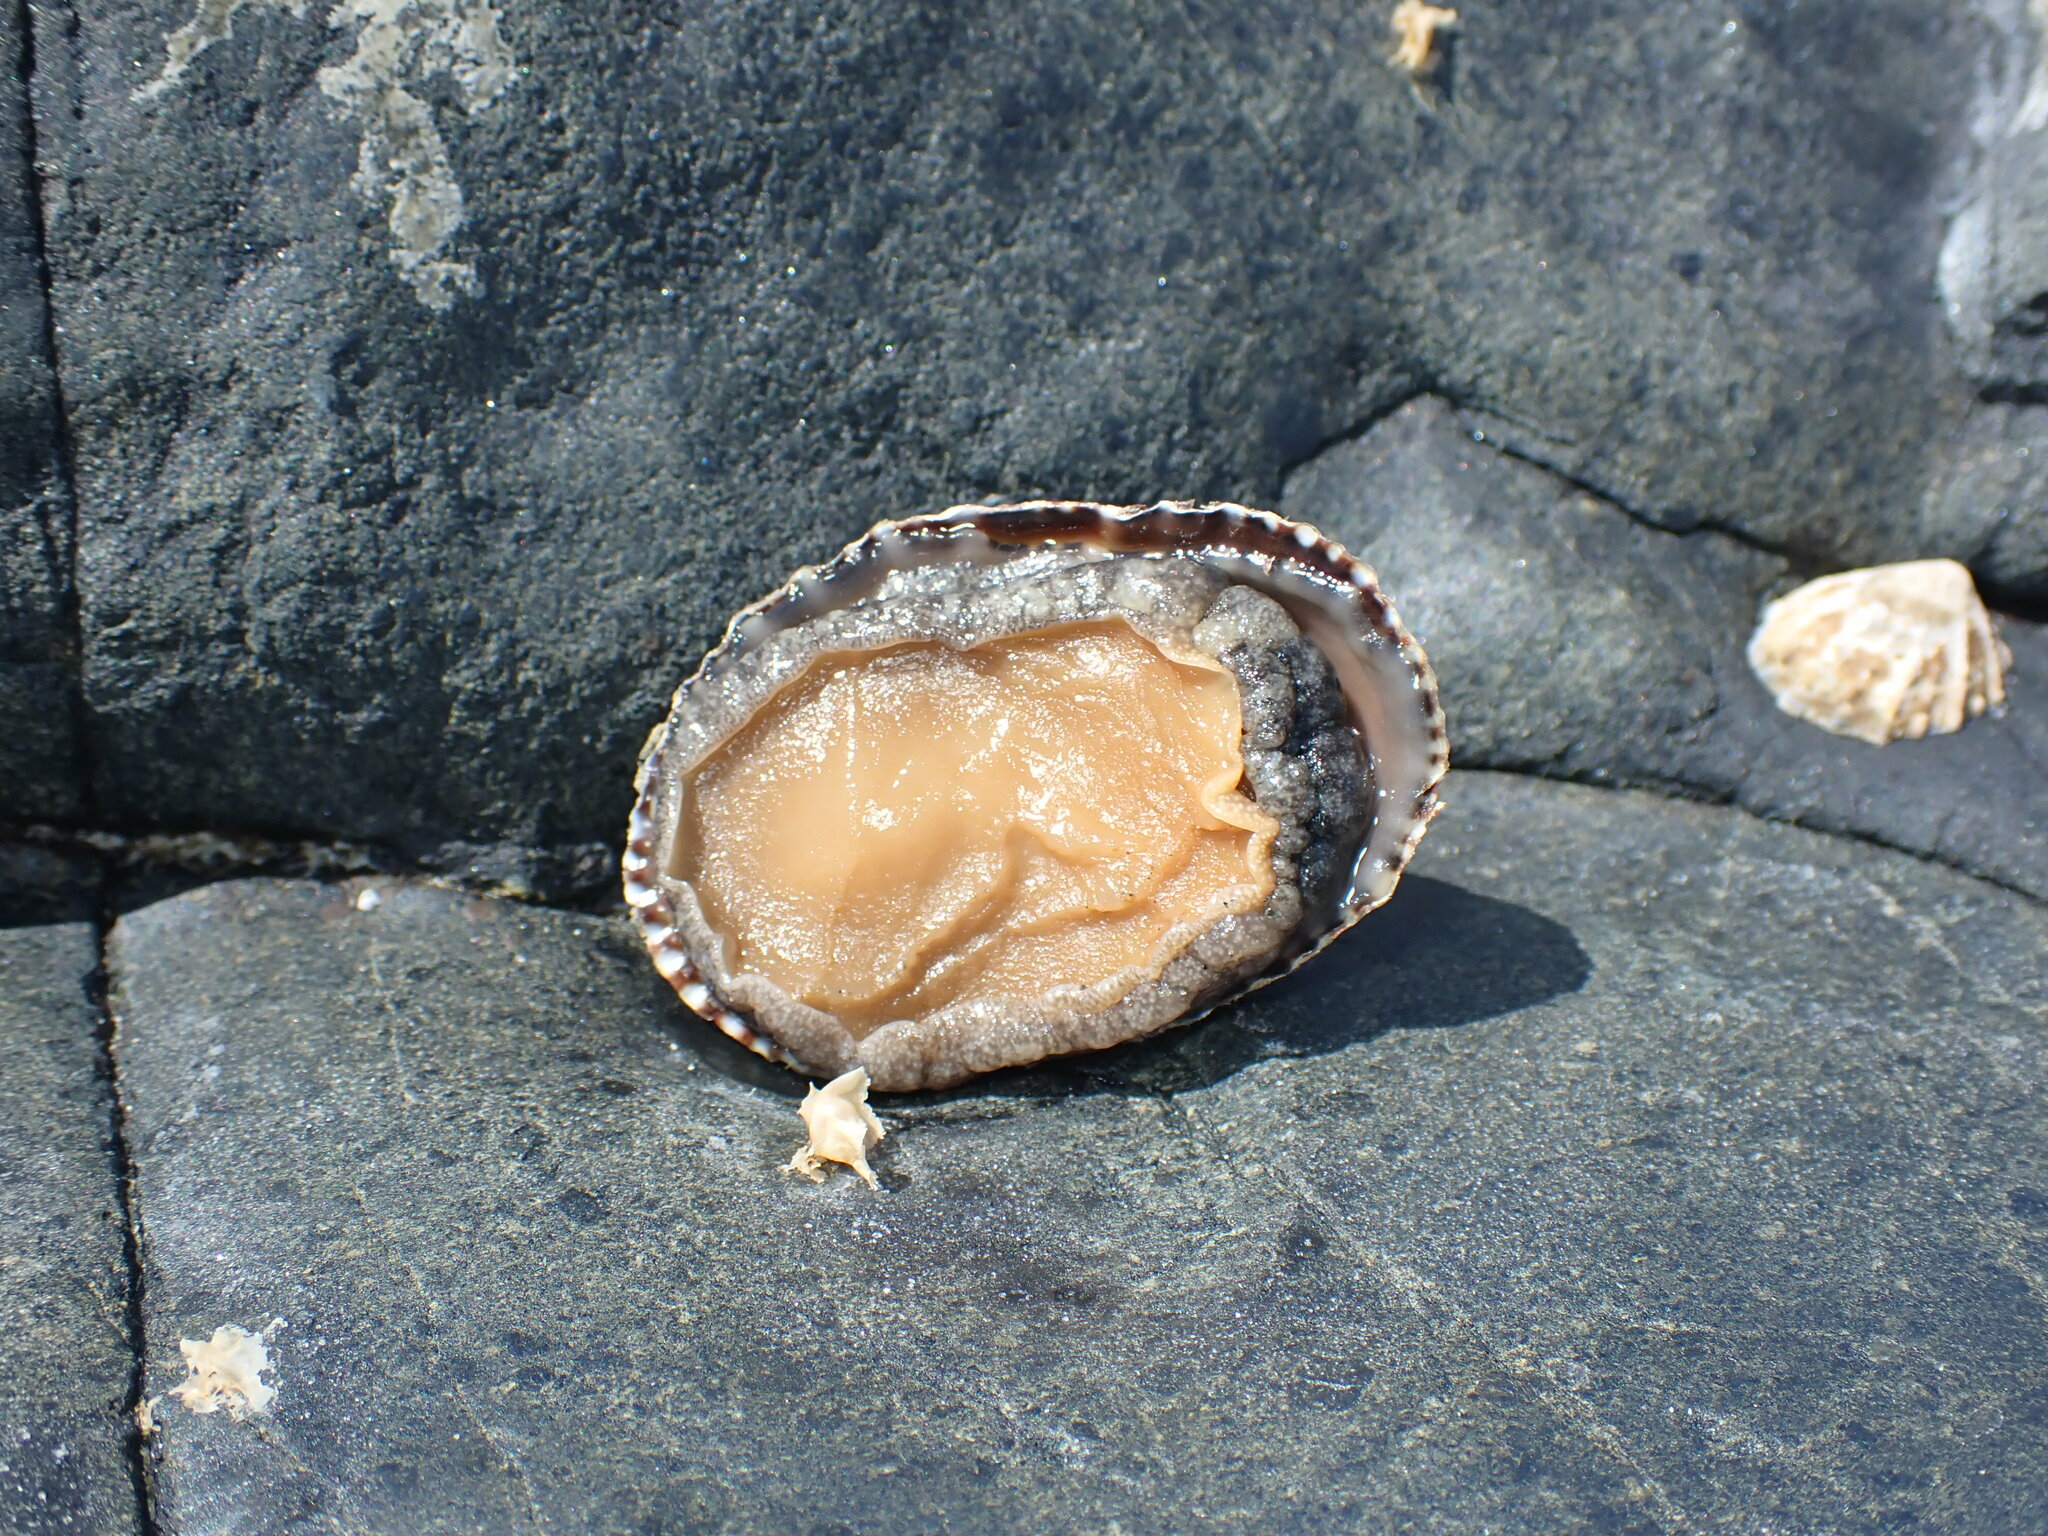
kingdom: Animalia
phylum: Mollusca
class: Gastropoda
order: Siphonariida
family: Siphonariidae
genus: Benhamina
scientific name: Benhamina obliquata
